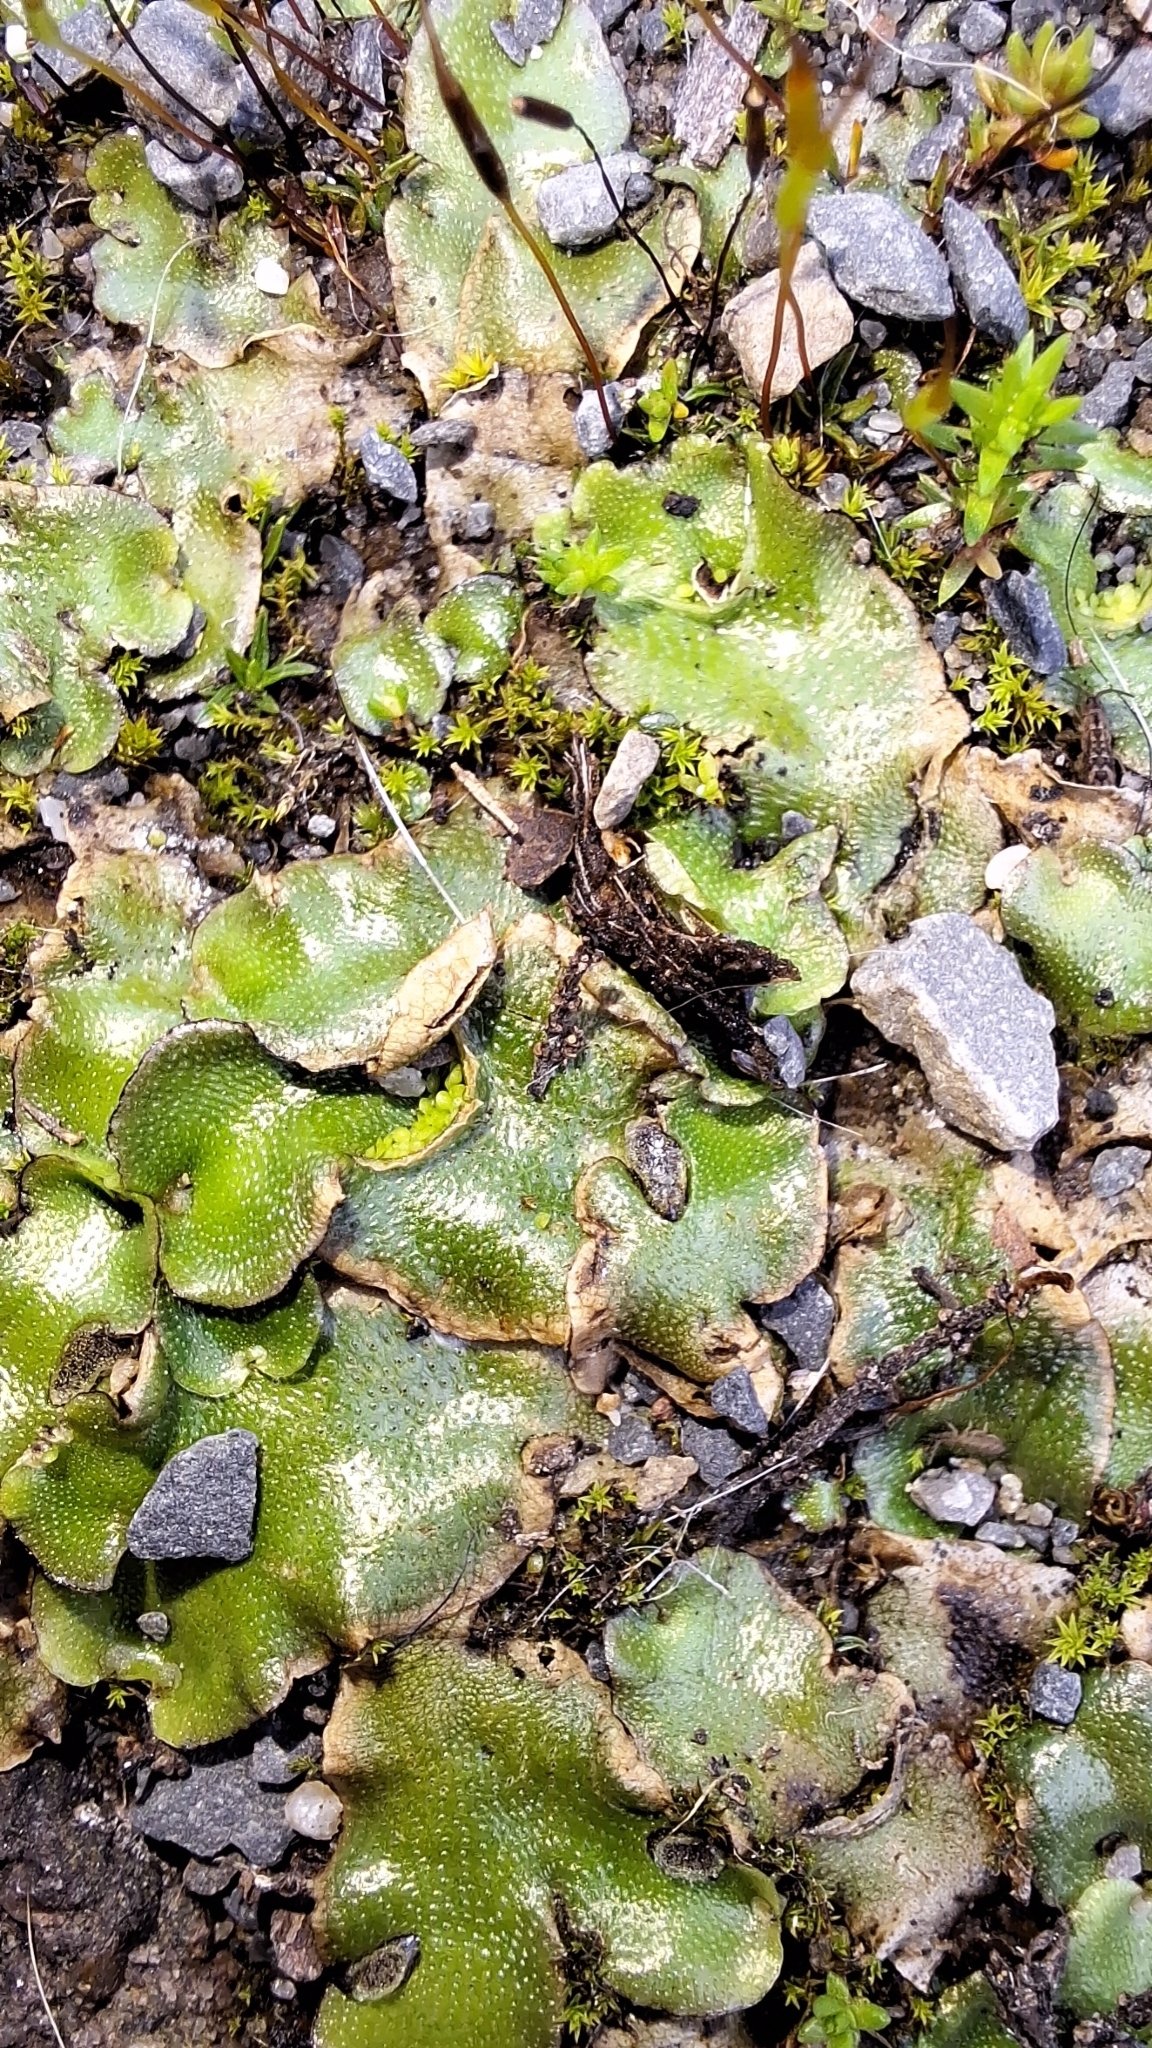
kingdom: Plantae
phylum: Marchantiophyta
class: Marchantiopsida
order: Lunulariales
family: Lunulariaceae
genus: Lunularia
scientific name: Lunularia cruciata
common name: Crescent-cup liverwort
